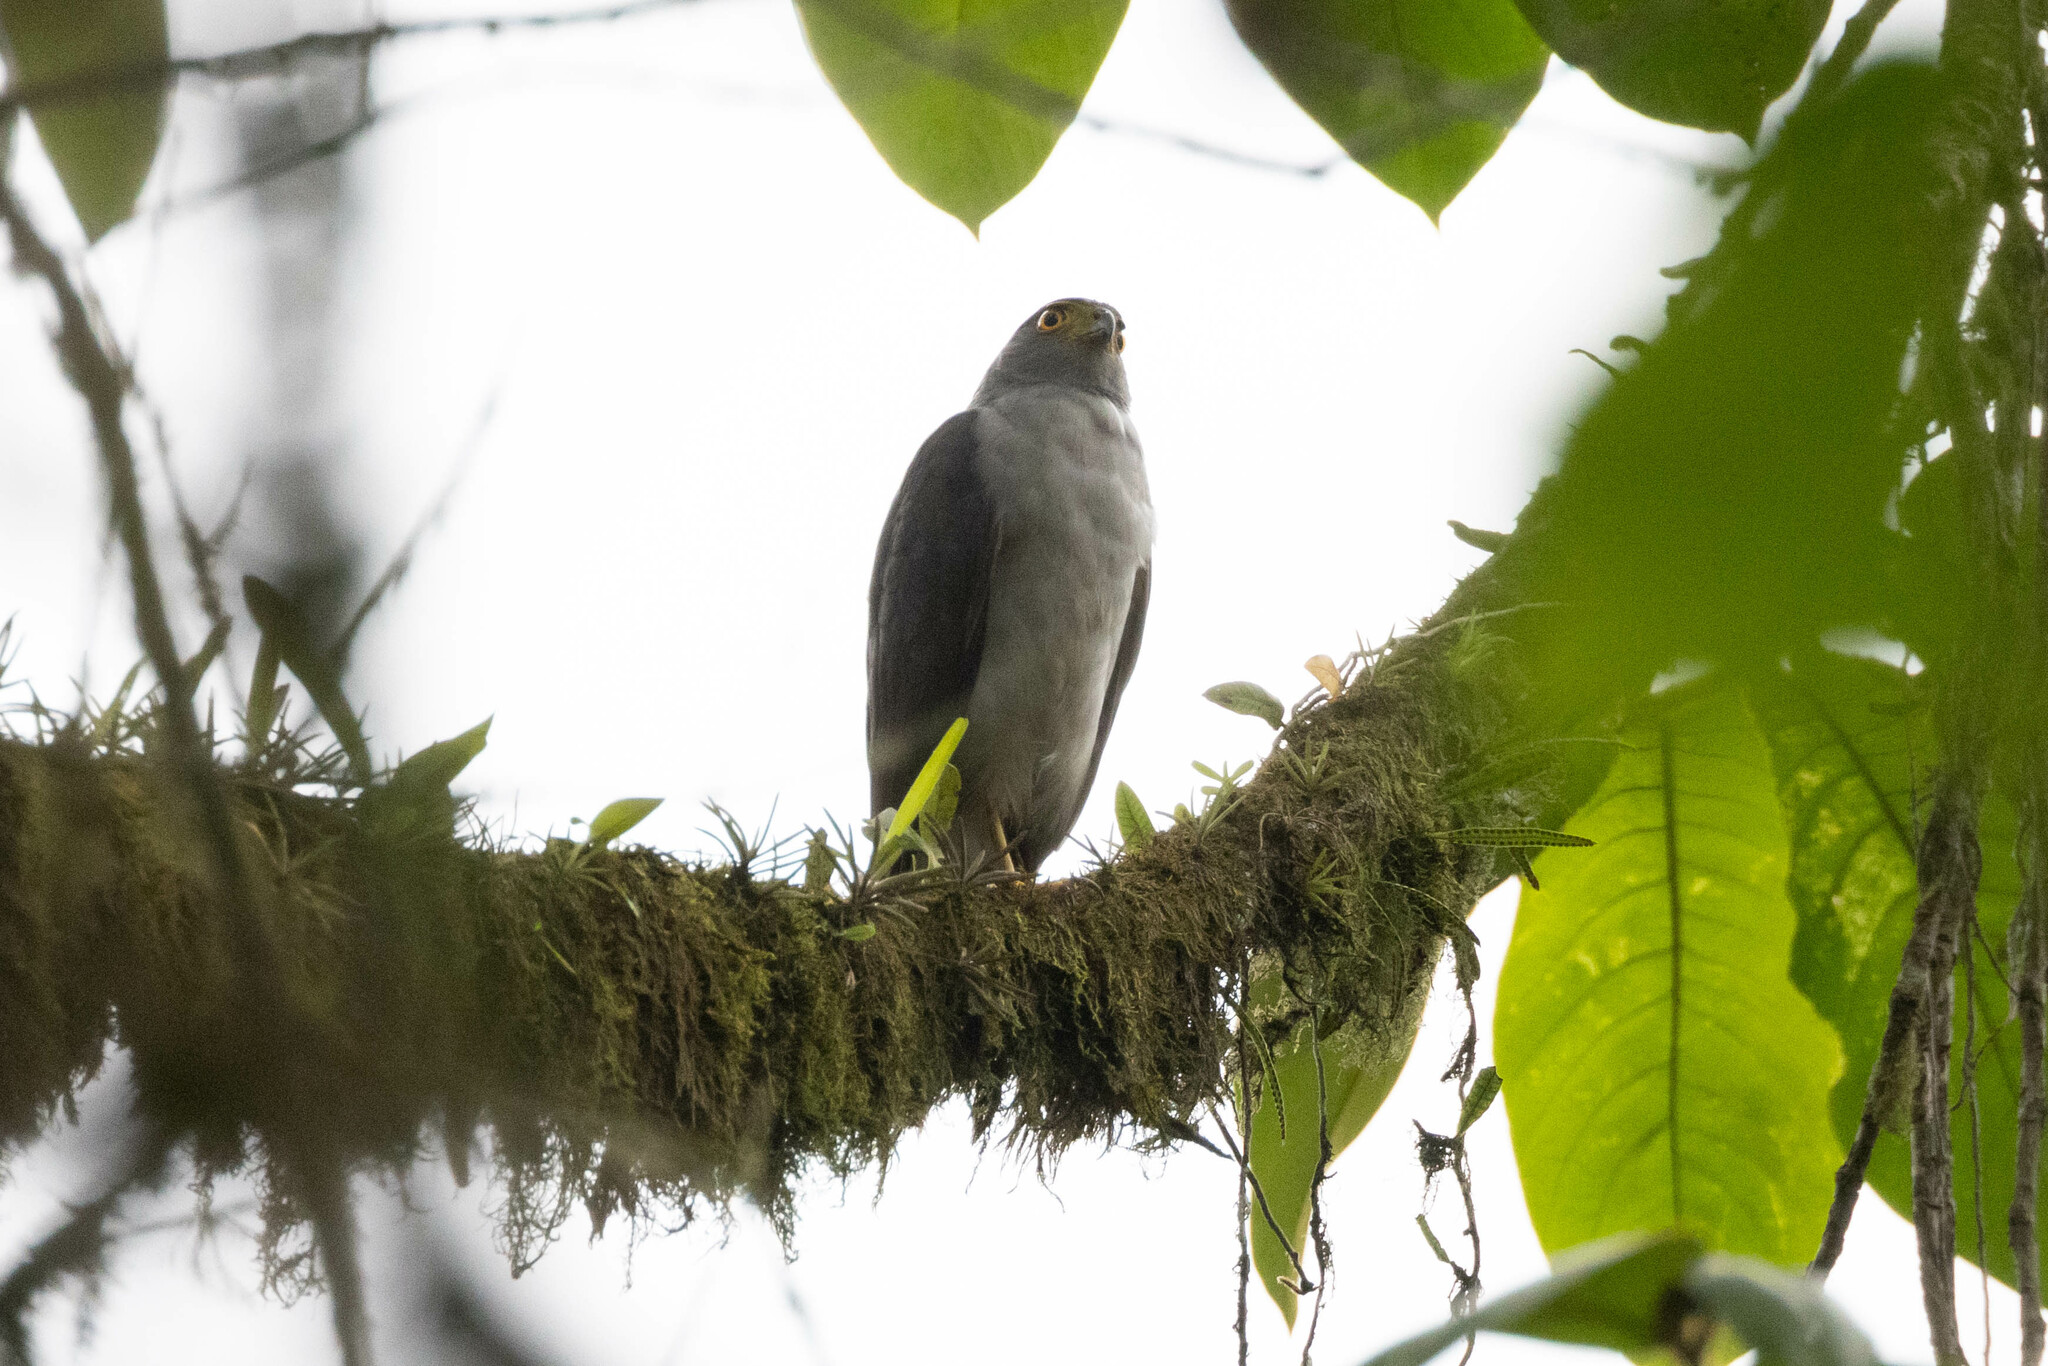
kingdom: Animalia
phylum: Chordata
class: Aves
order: Accipitriformes
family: Accipitridae
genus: Accipiter
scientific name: Accipiter bicolor
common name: Bicolored hawk
